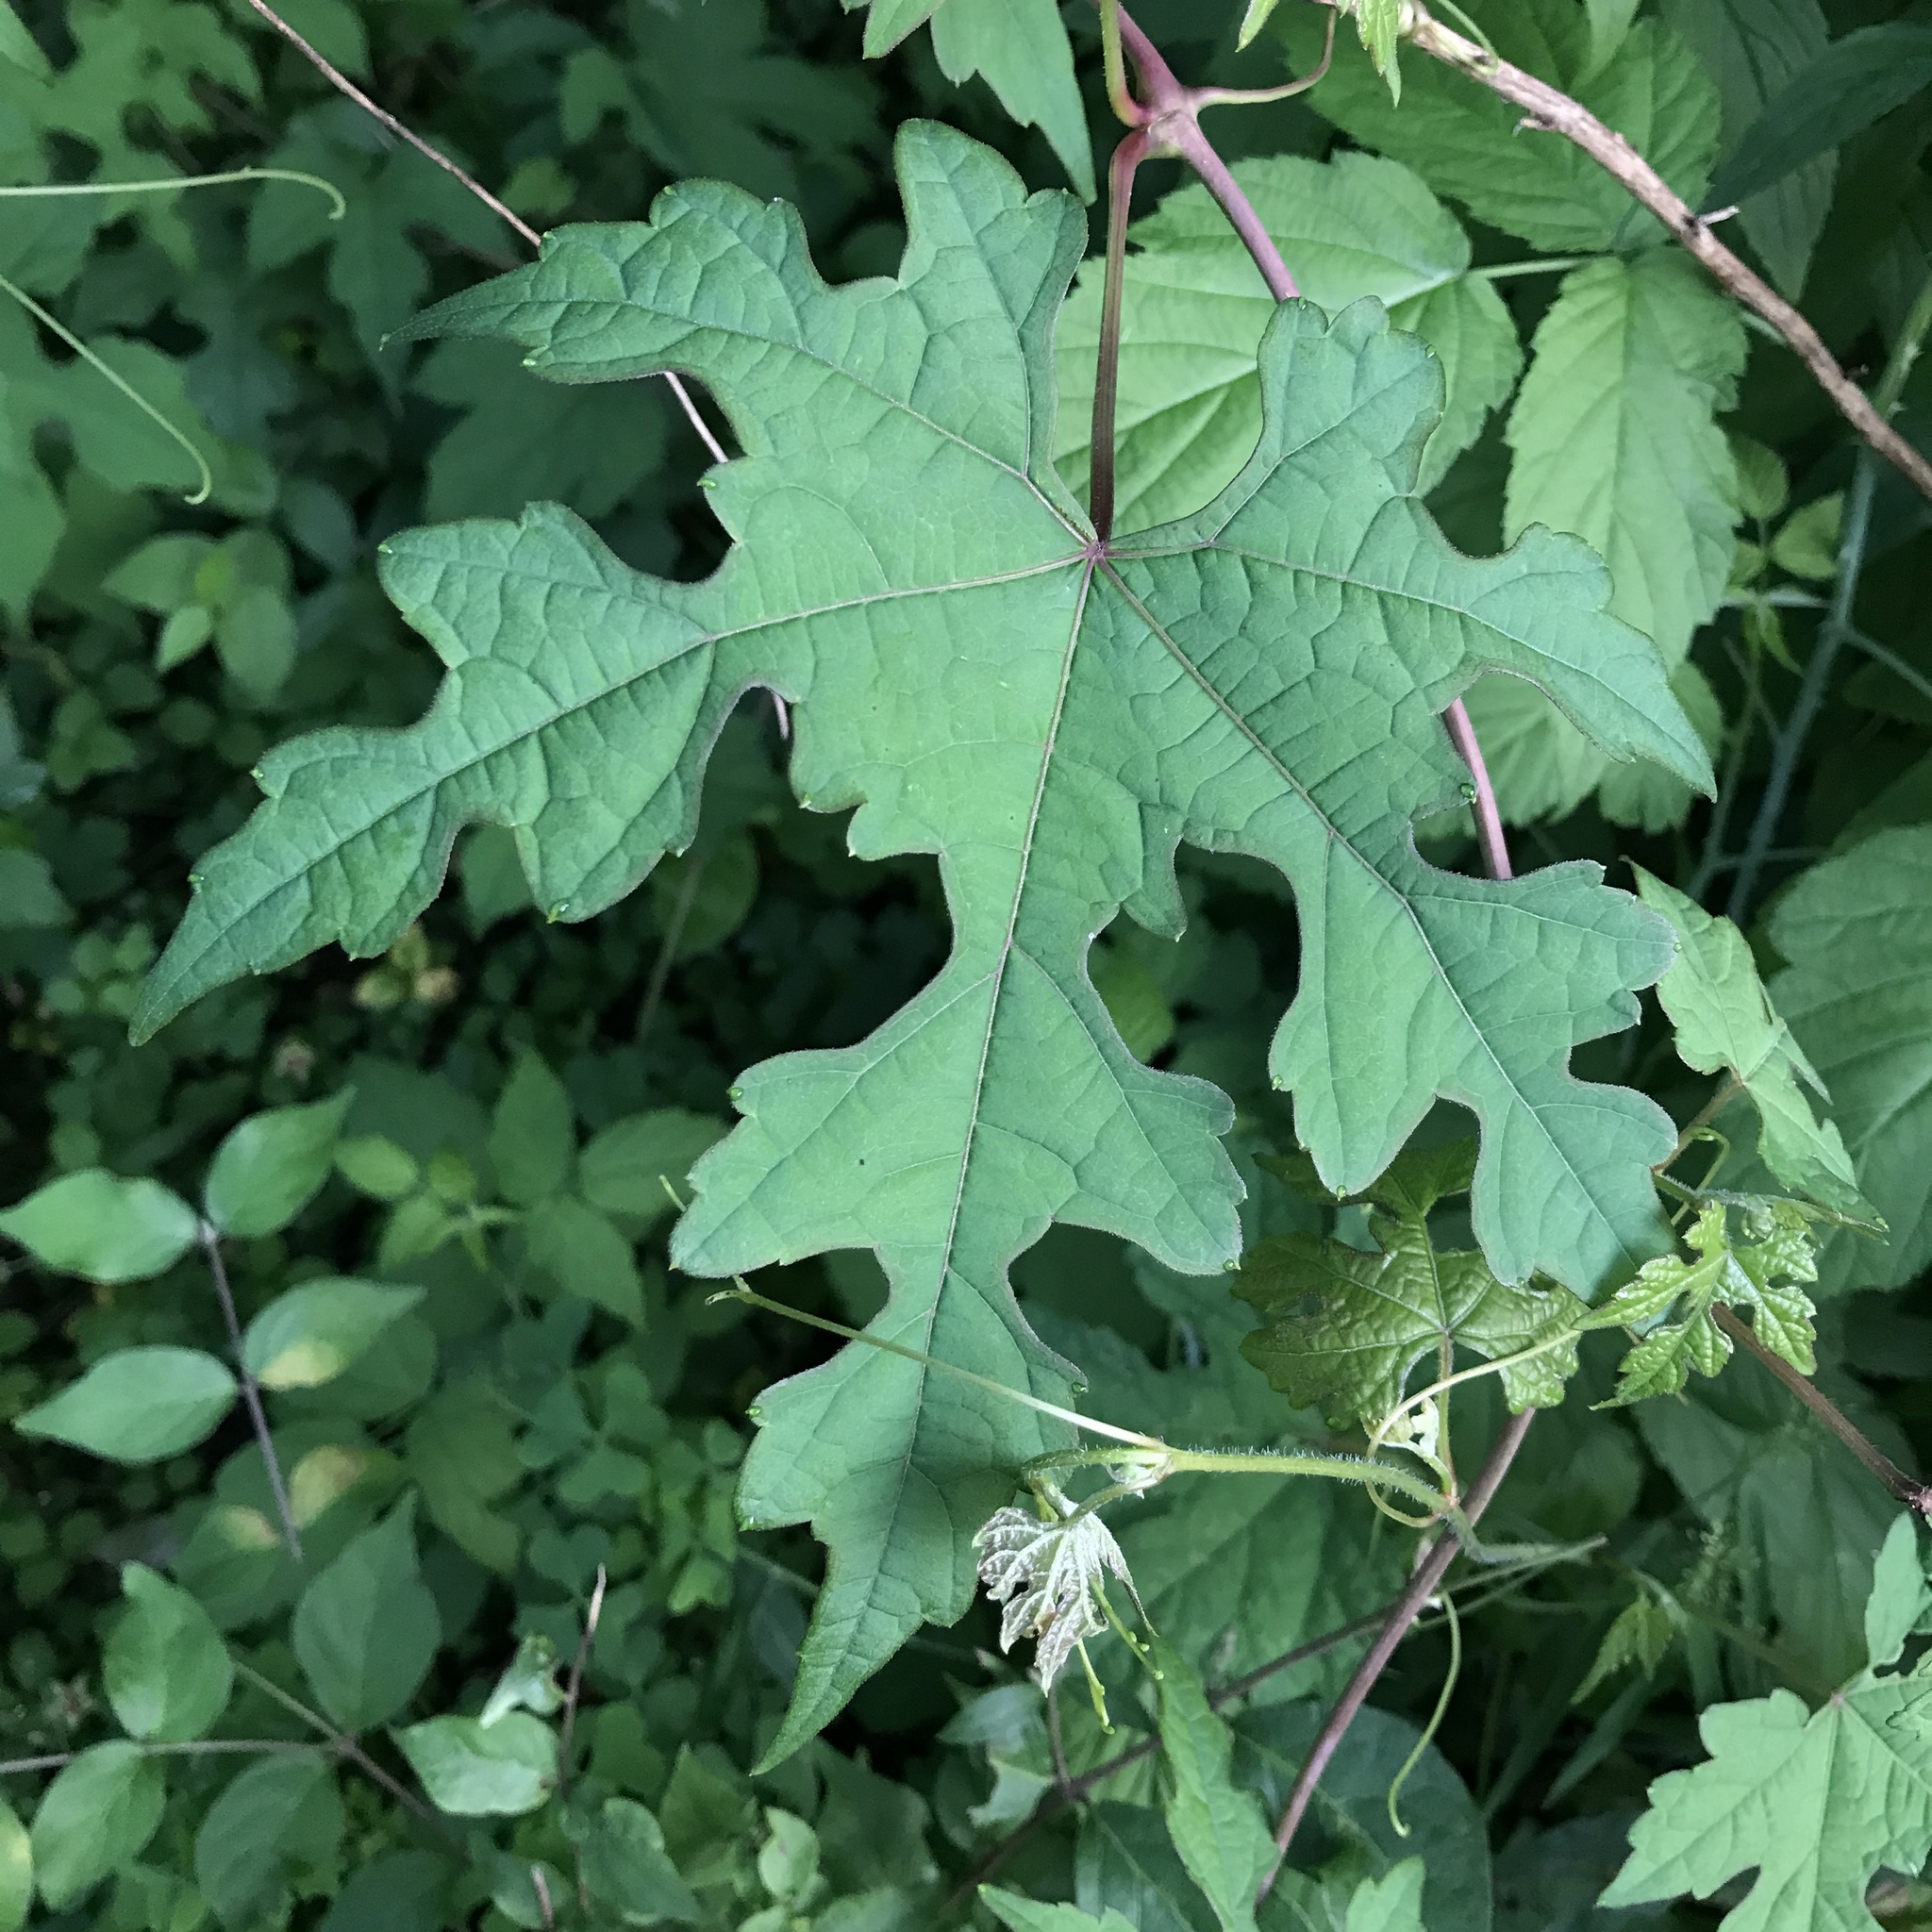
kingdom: Plantae
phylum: Tracheophyta
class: Magnoliopsida
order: Vitales
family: Vitaceae
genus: Ampelopsis
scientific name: Ampelopsis glandulosa
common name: Amur peppervine
